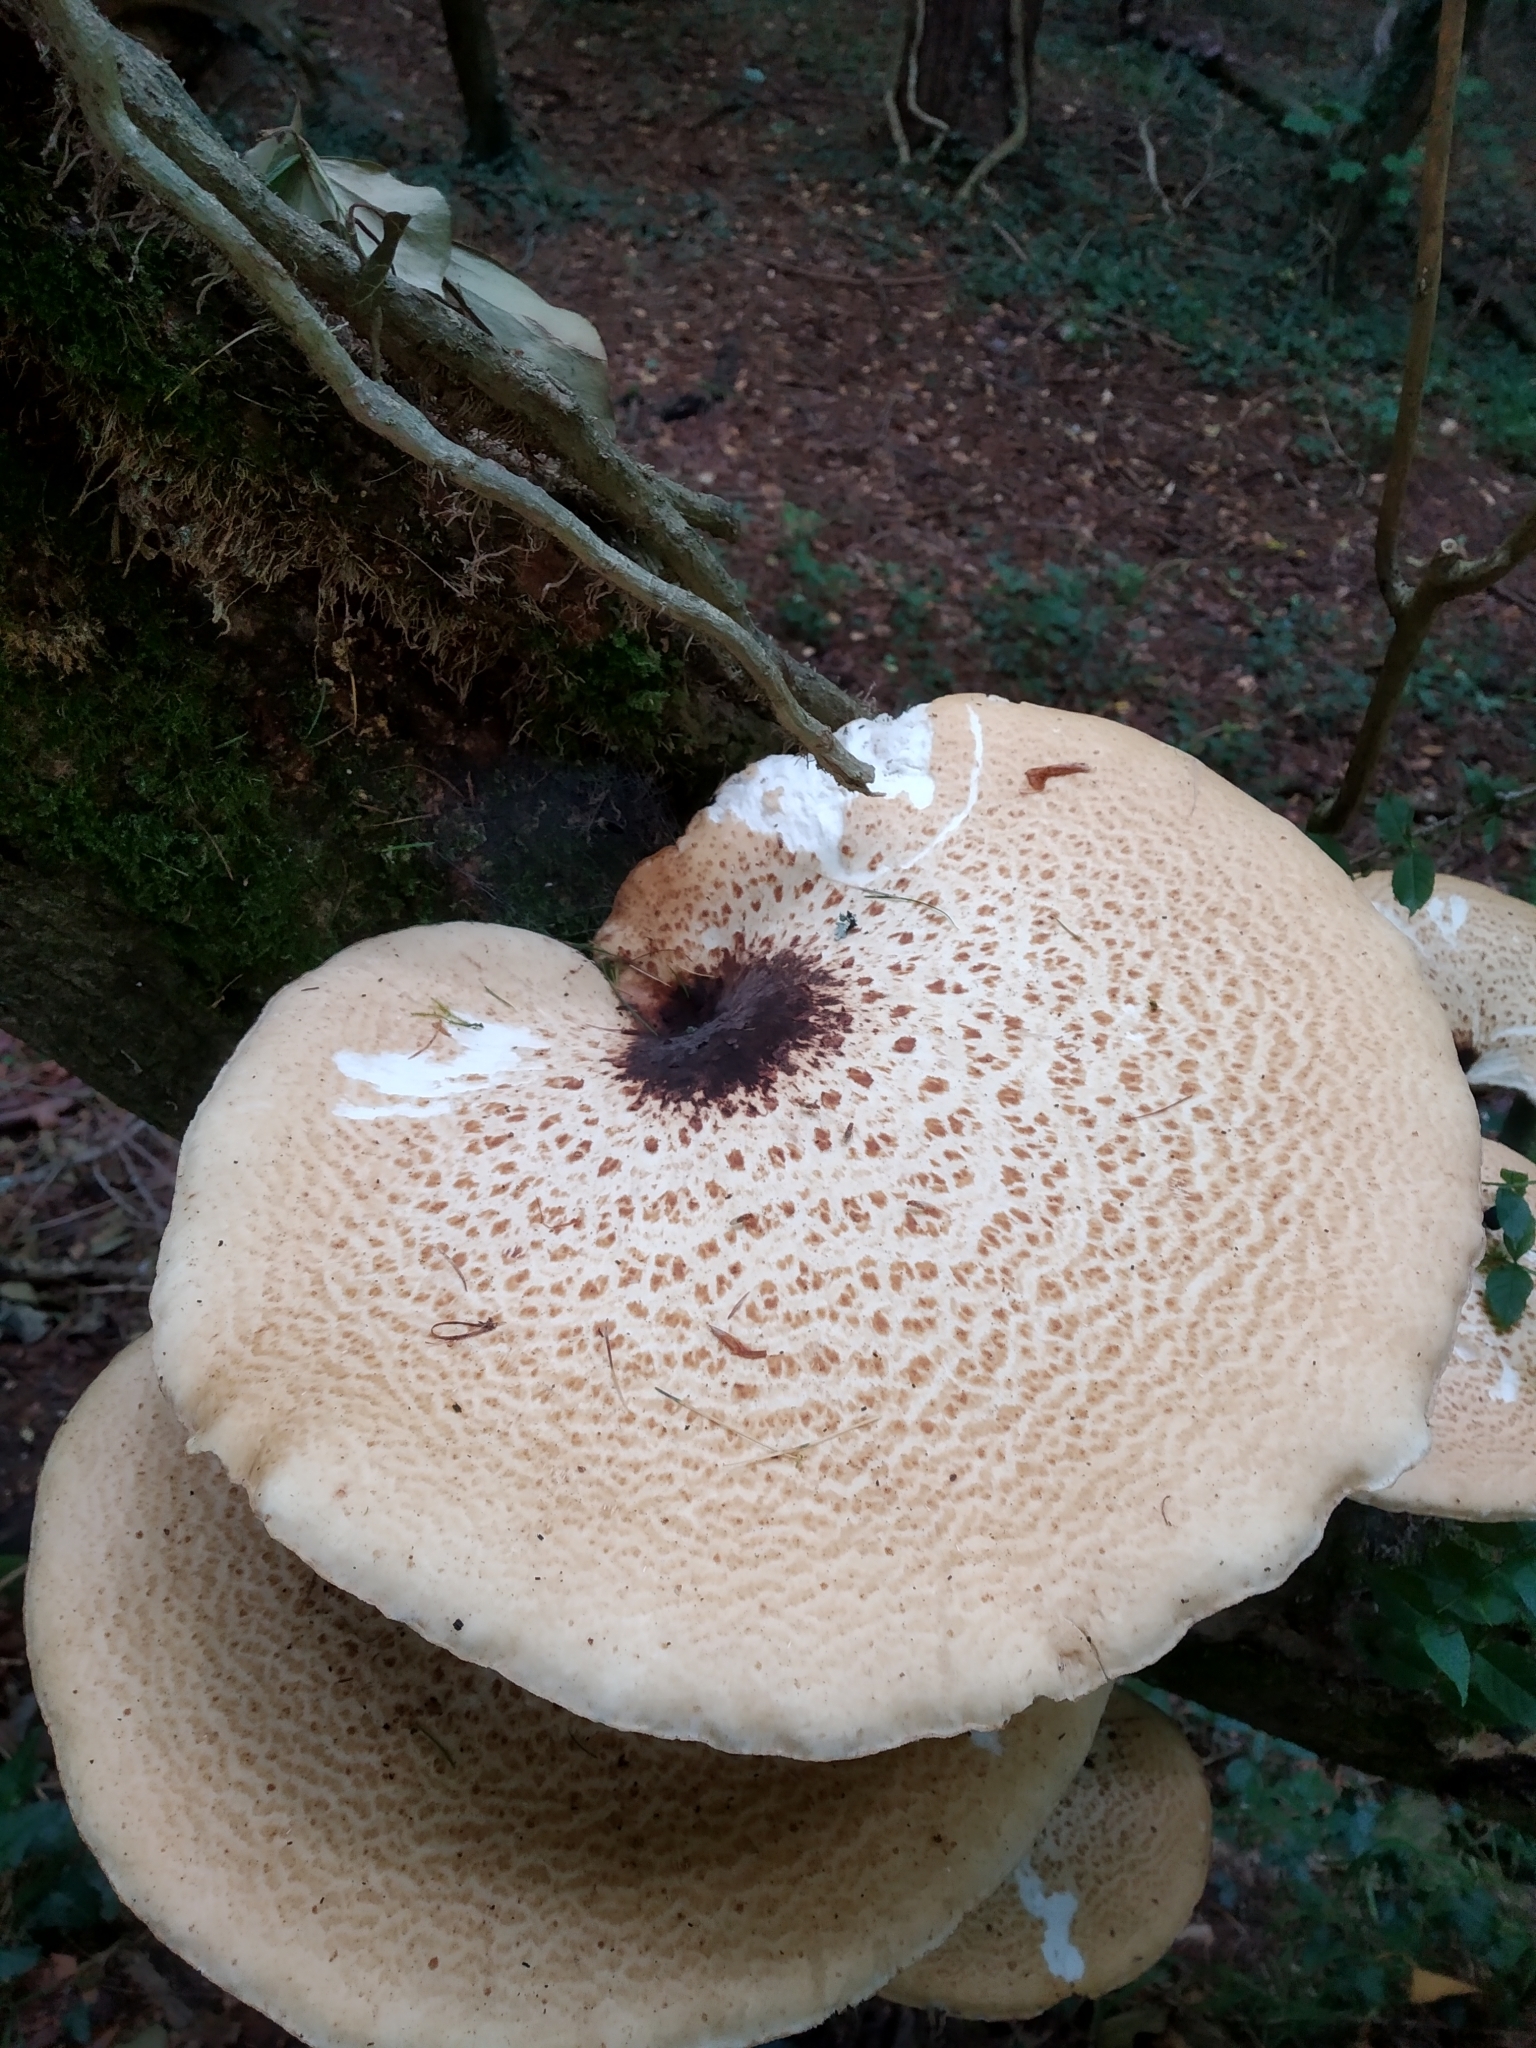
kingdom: Fungi
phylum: Basidiomycota
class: Agaricomycetes
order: Polyporales
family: Polyporaceae
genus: Cerioporus
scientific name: Cerioporus squamosus
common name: Dryad's saddle
